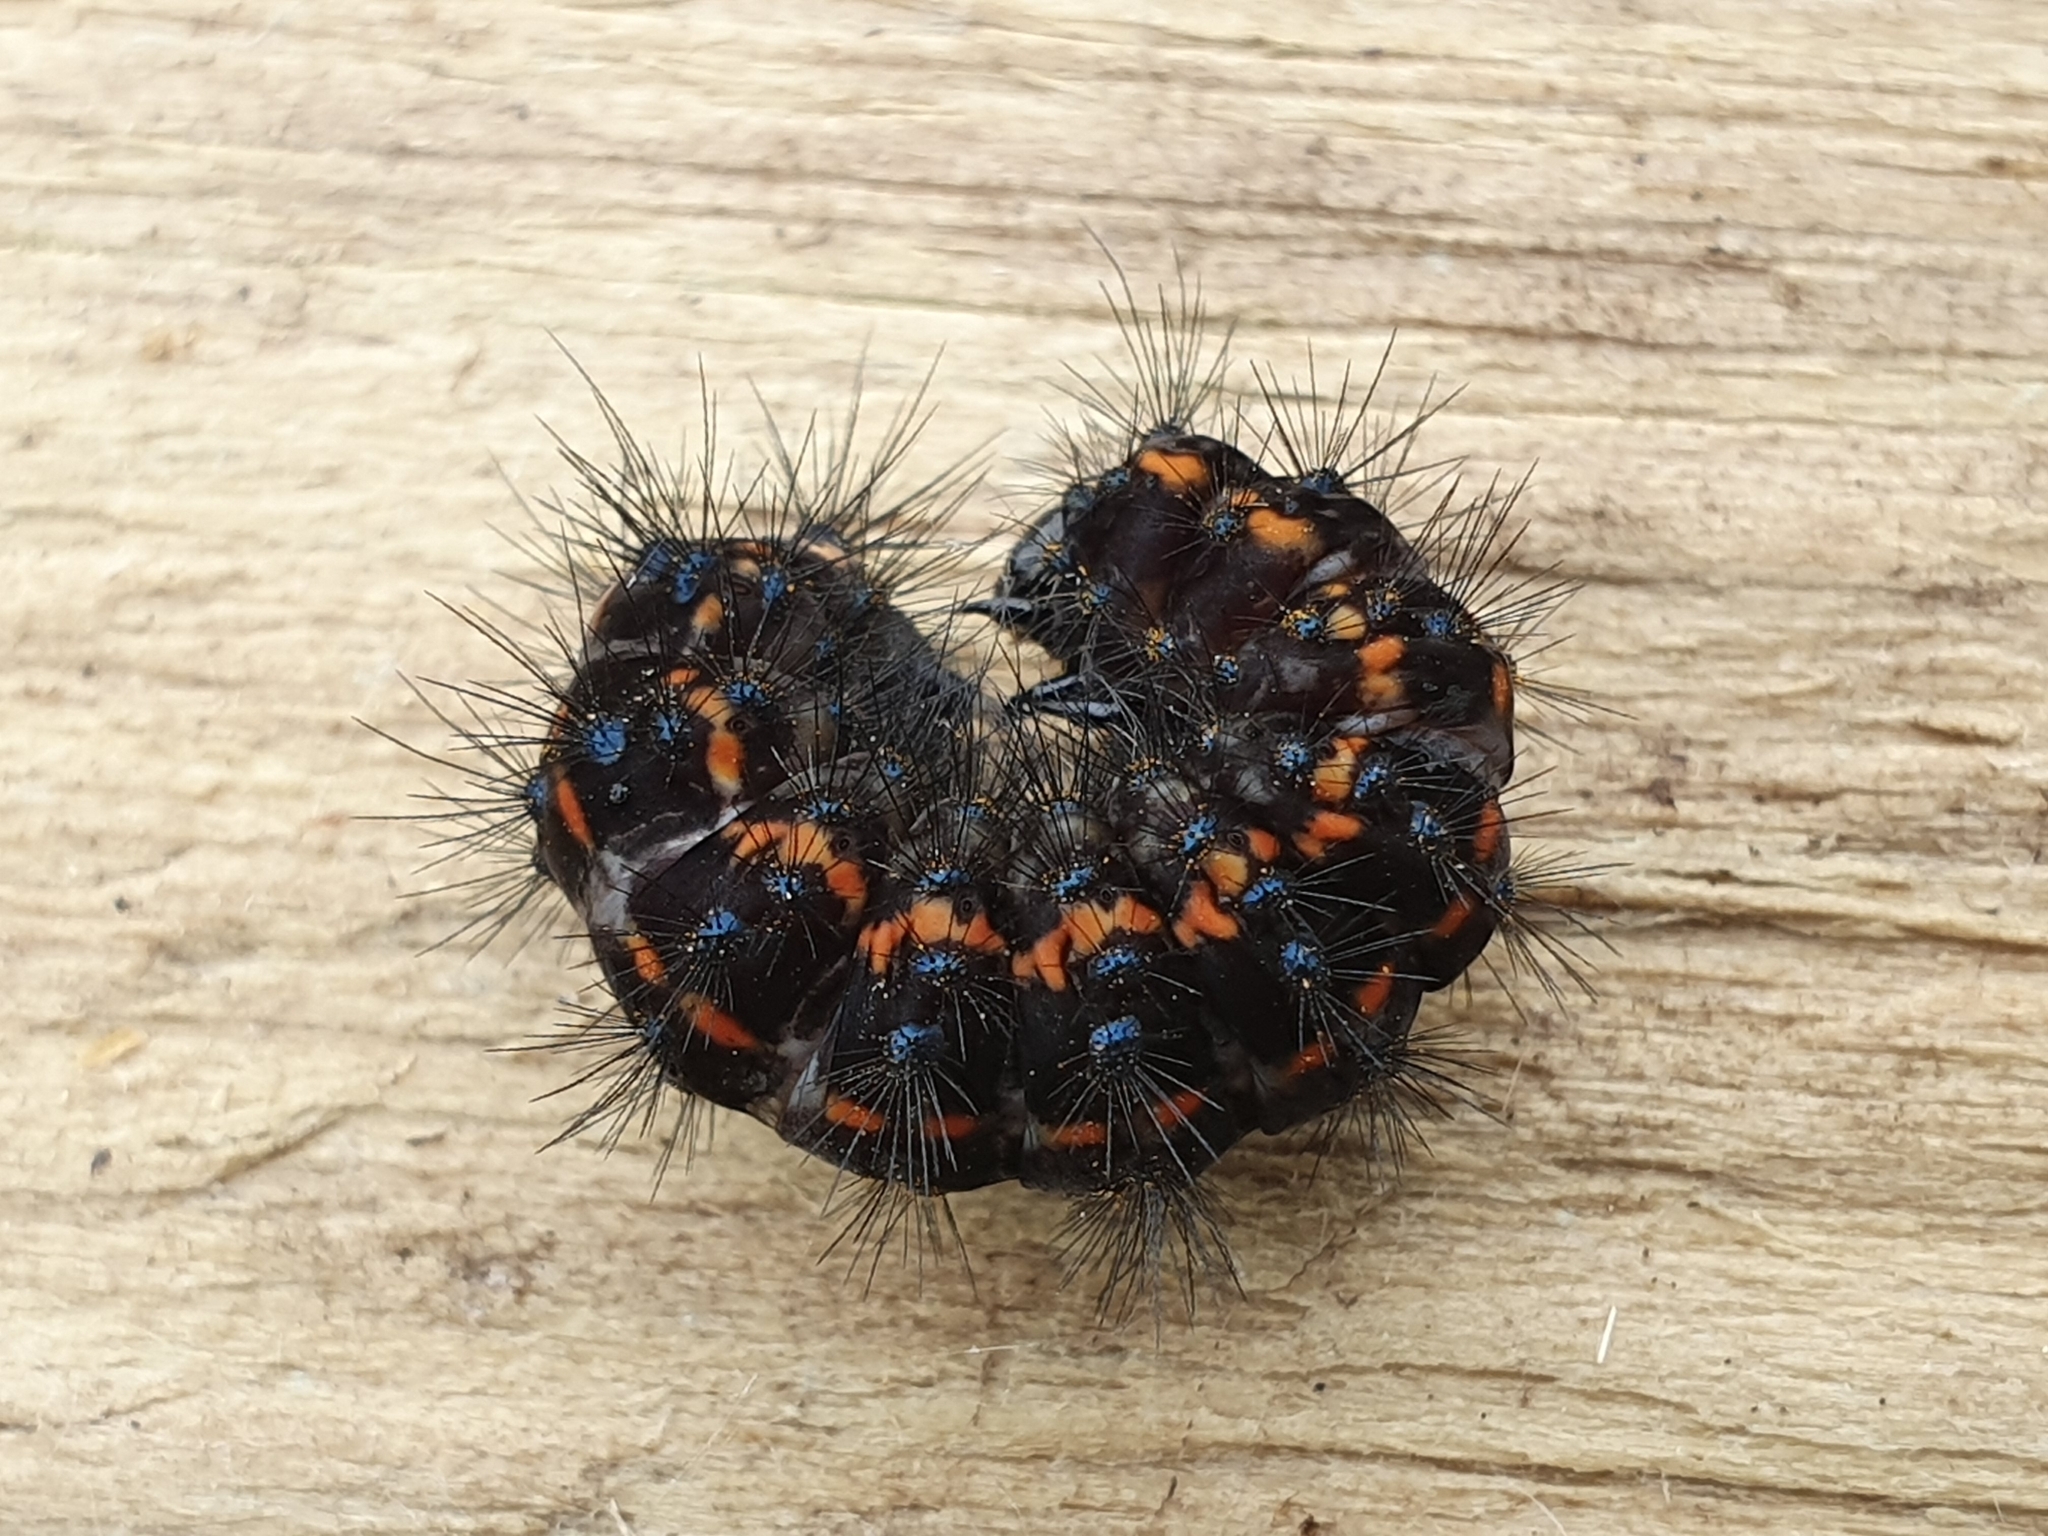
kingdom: Animalia
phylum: Arthropoda
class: Insecta
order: Lepidoptera
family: Erebidae
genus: Nyctemera
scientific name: Nyctemera annulatum
